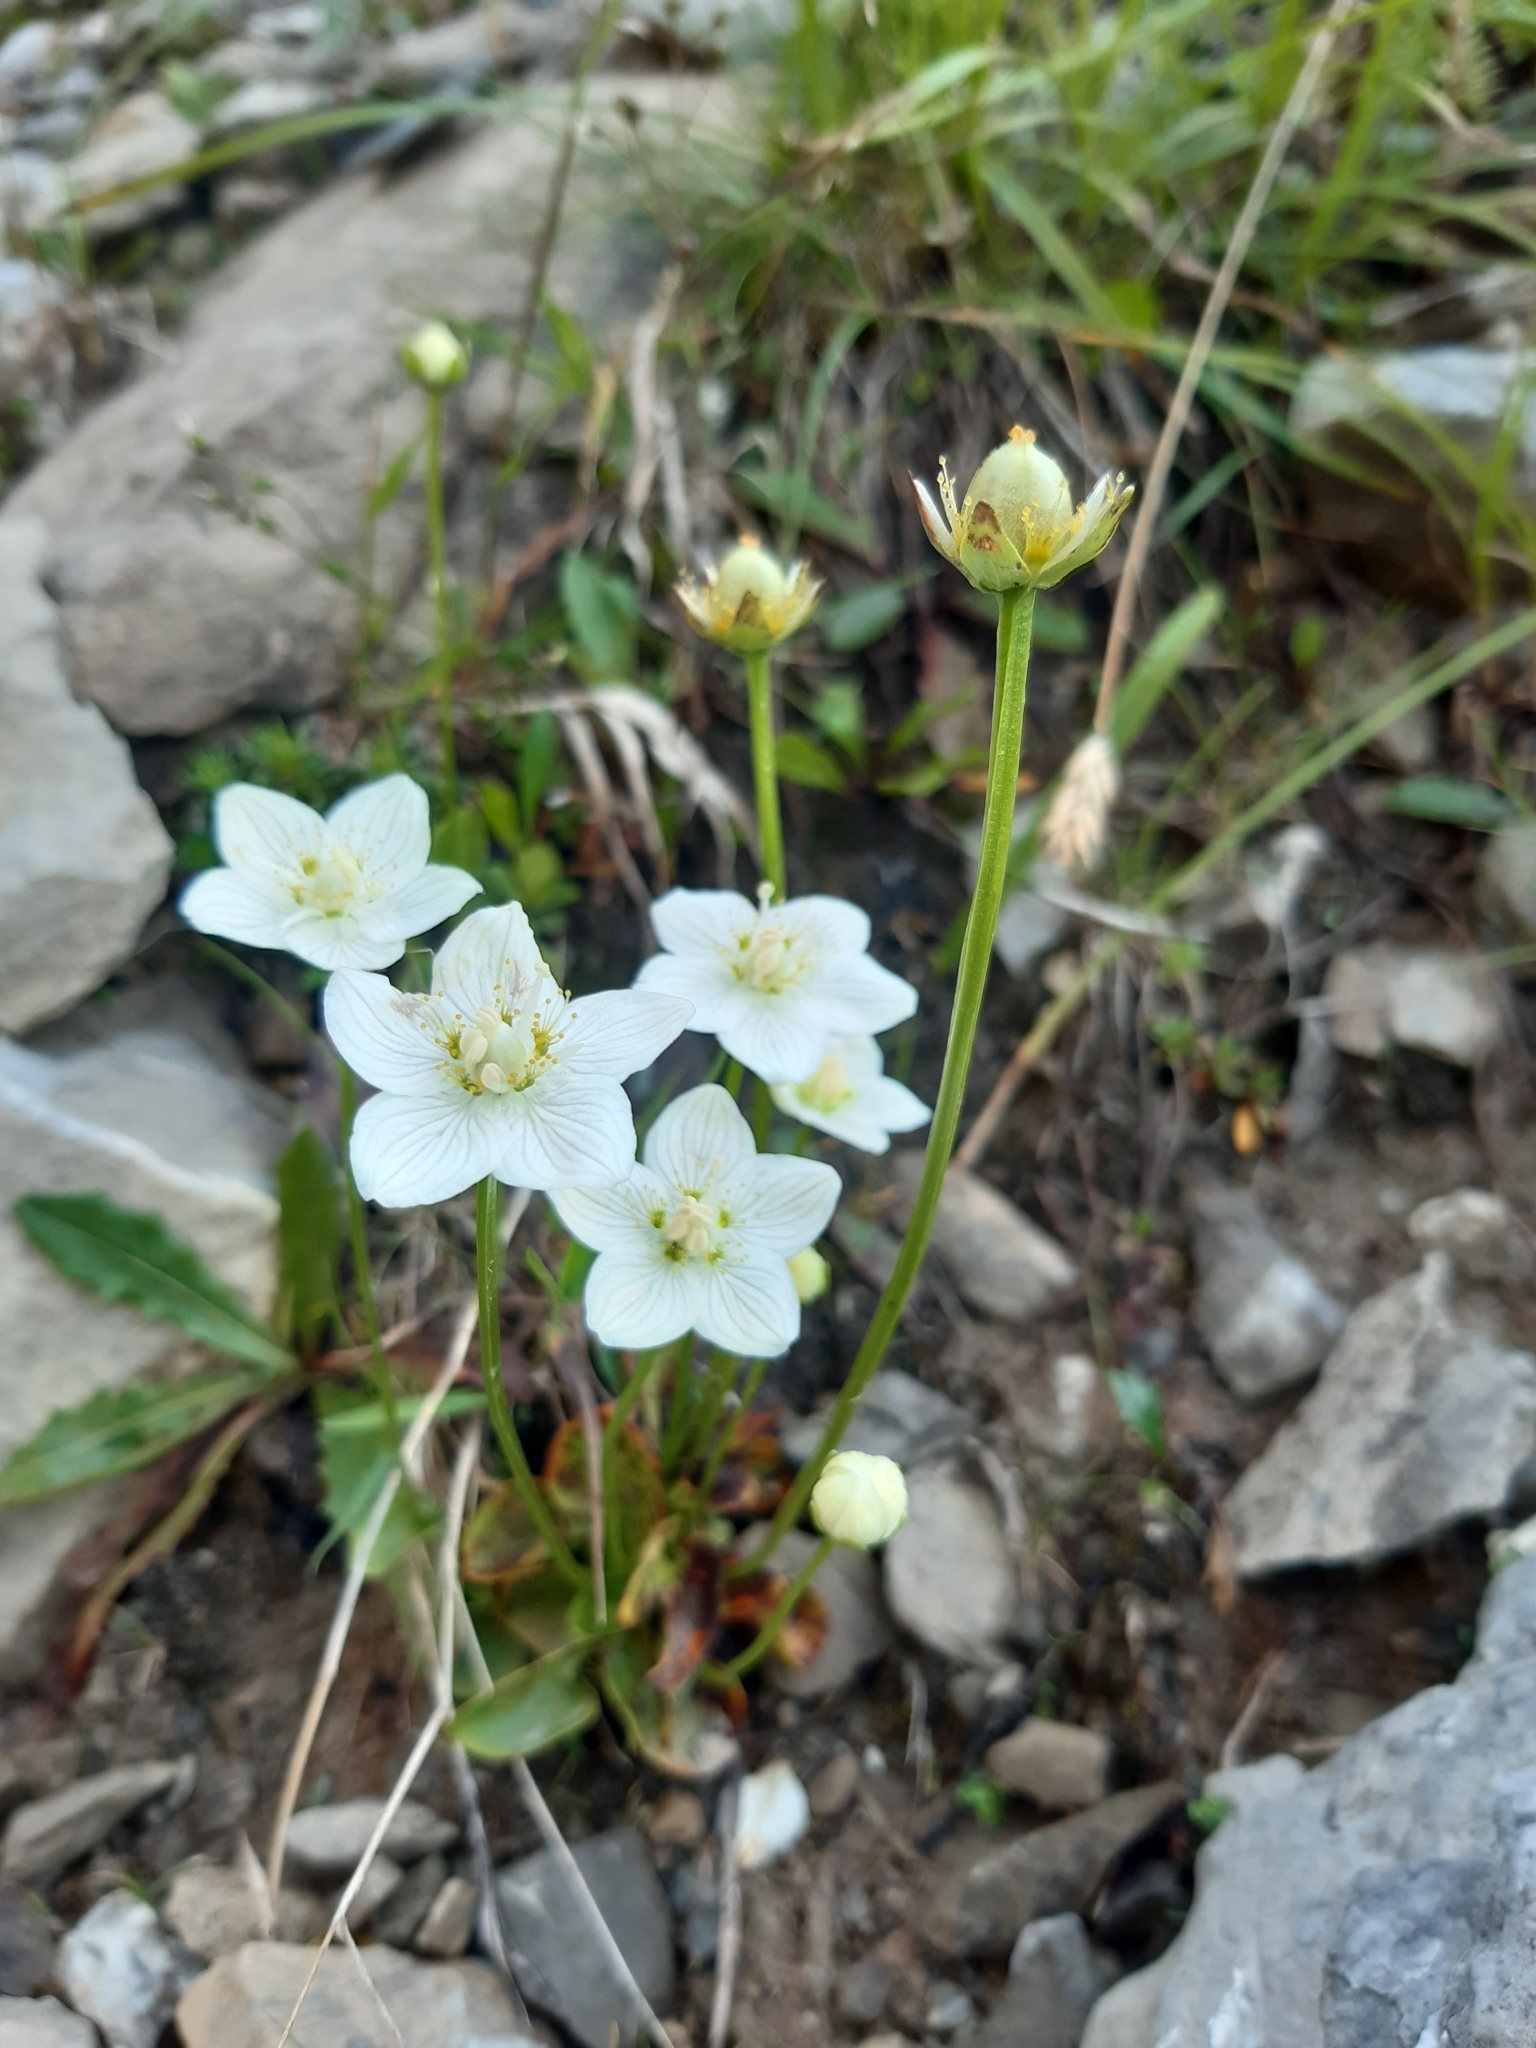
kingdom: Plantae
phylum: Tracheophyta
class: Magnoliopsida
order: Celastrales
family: Parnassiaceae
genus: Parnassia
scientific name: Parnassia palustris
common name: Grass-of-parnassus
